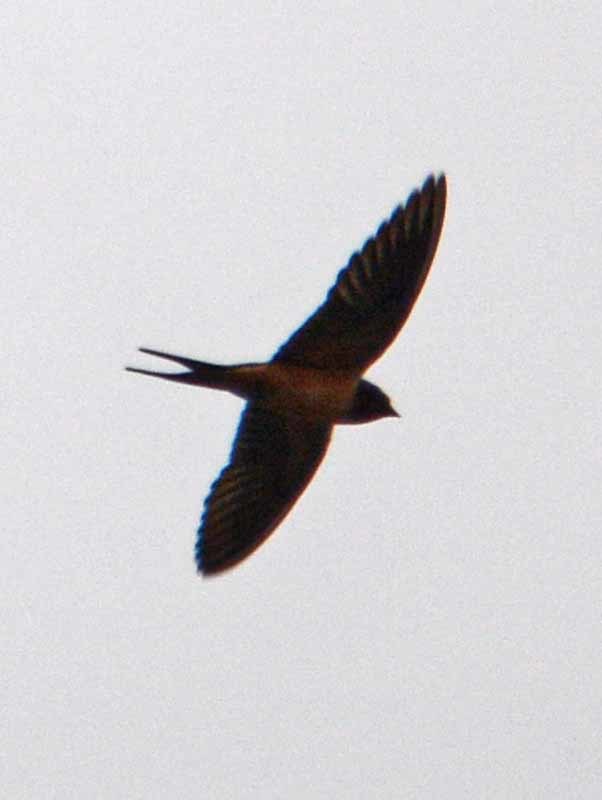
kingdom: Animalia
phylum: Chordata
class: Aves
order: Passeriformes
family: Hirundinidae
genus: Hirundo
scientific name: Hirundo rustica
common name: Barn swallow
